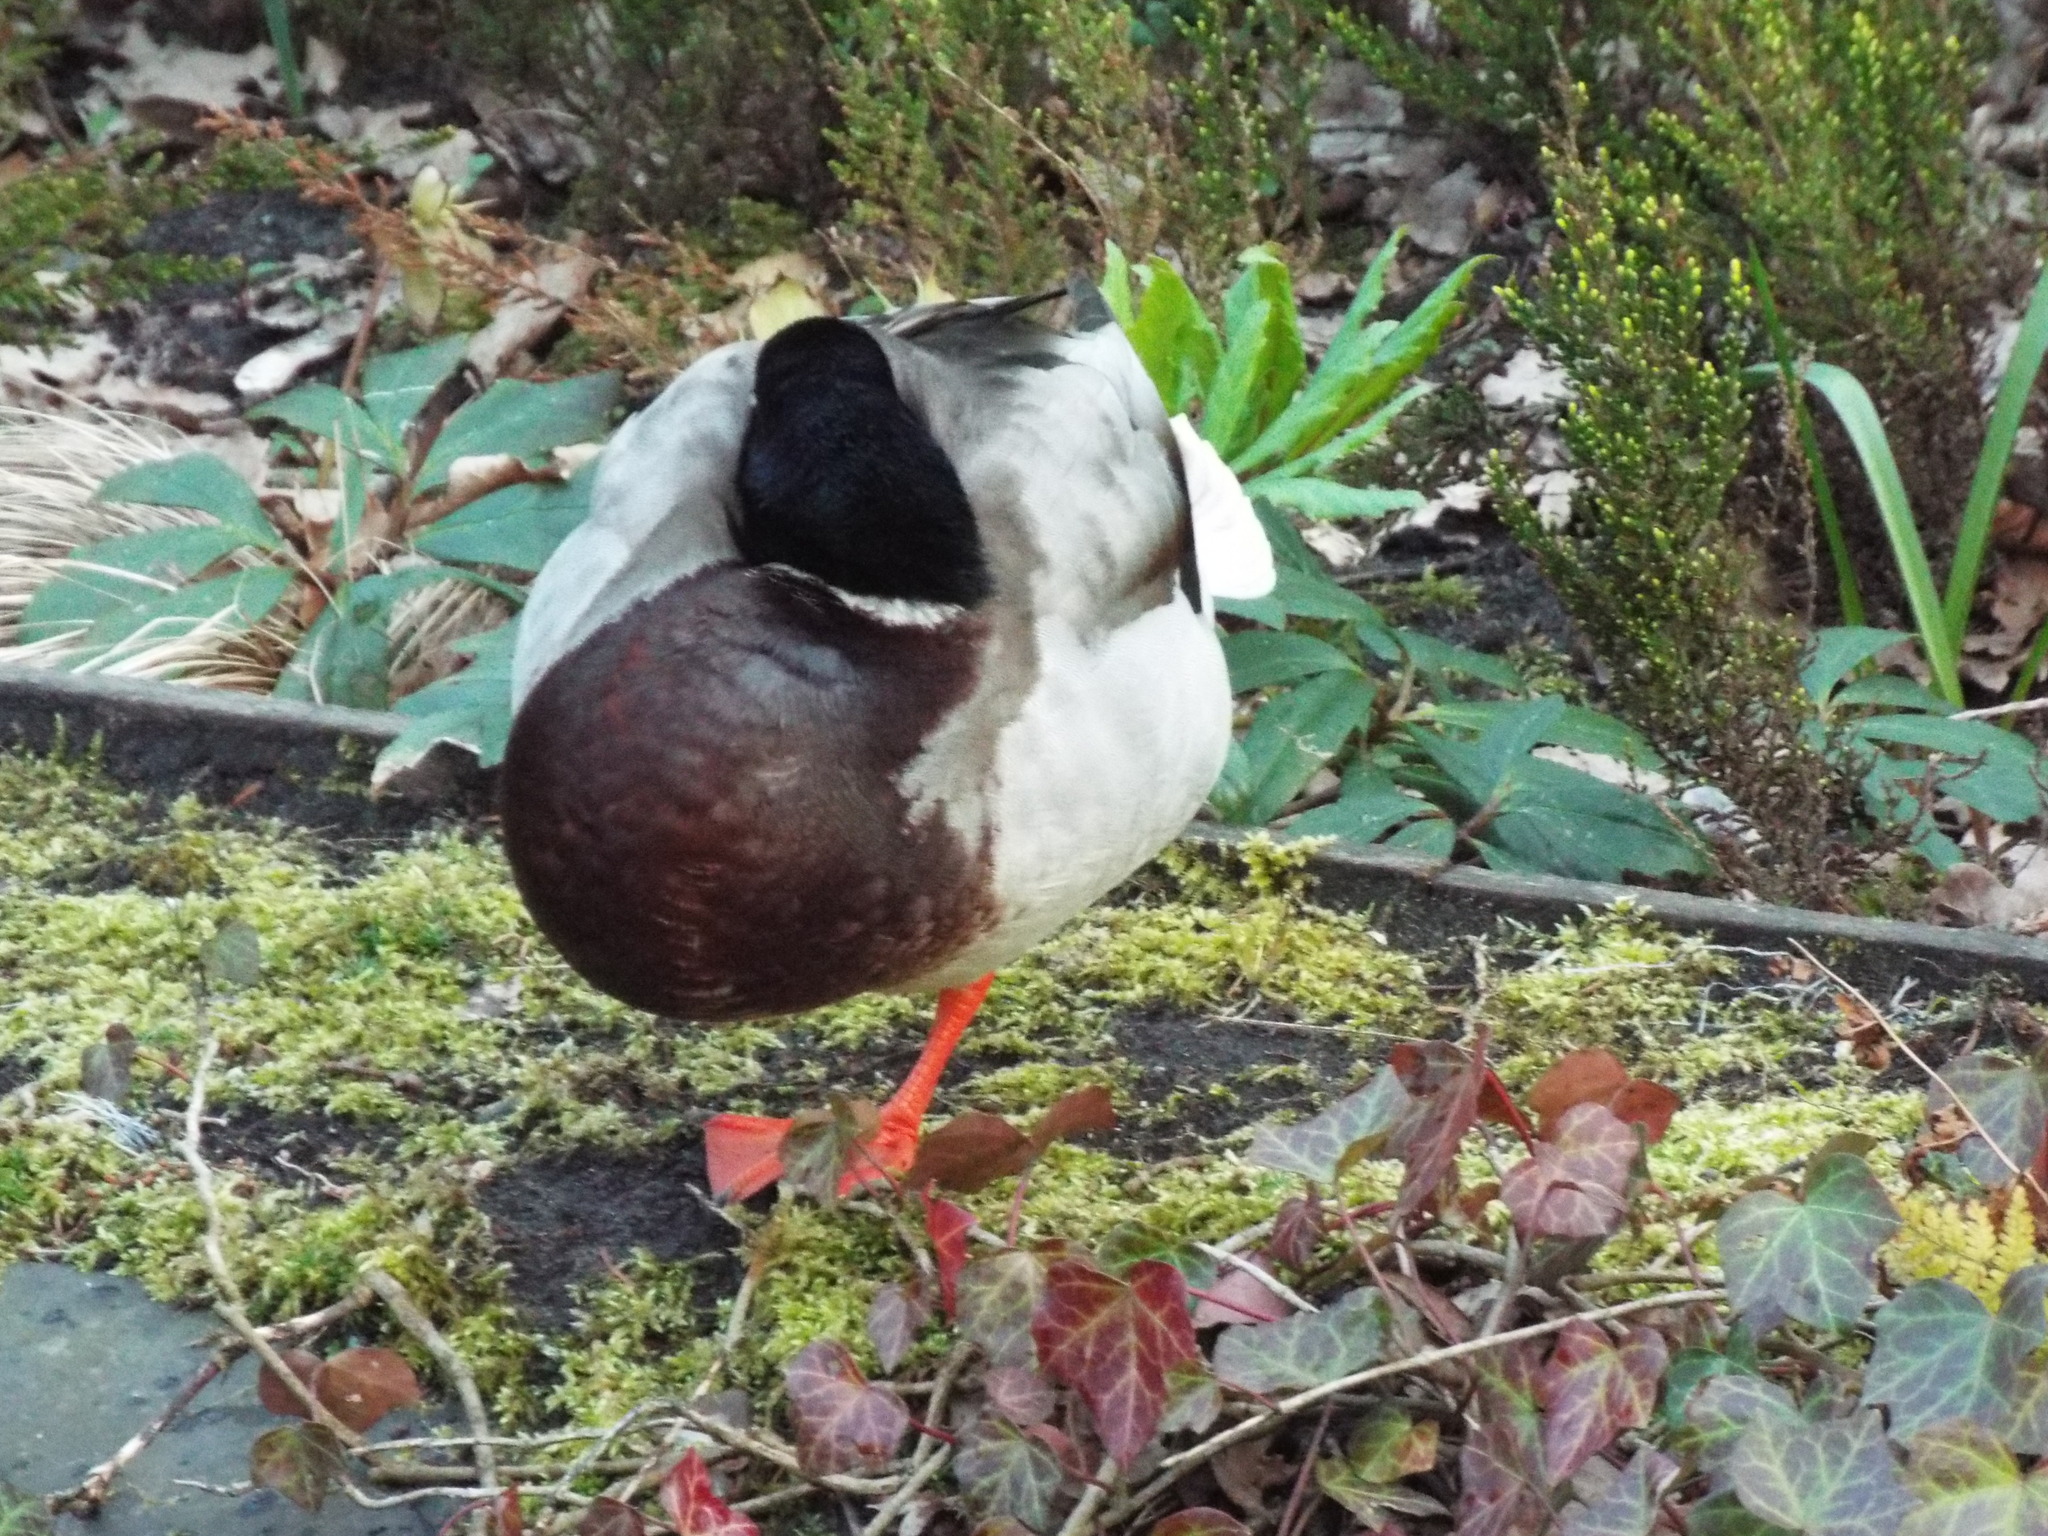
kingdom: Animalia
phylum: Chordata
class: Aves
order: Anseriformes
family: Anatidae
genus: Anas
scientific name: Anas platyrhynchos
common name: Mallard
